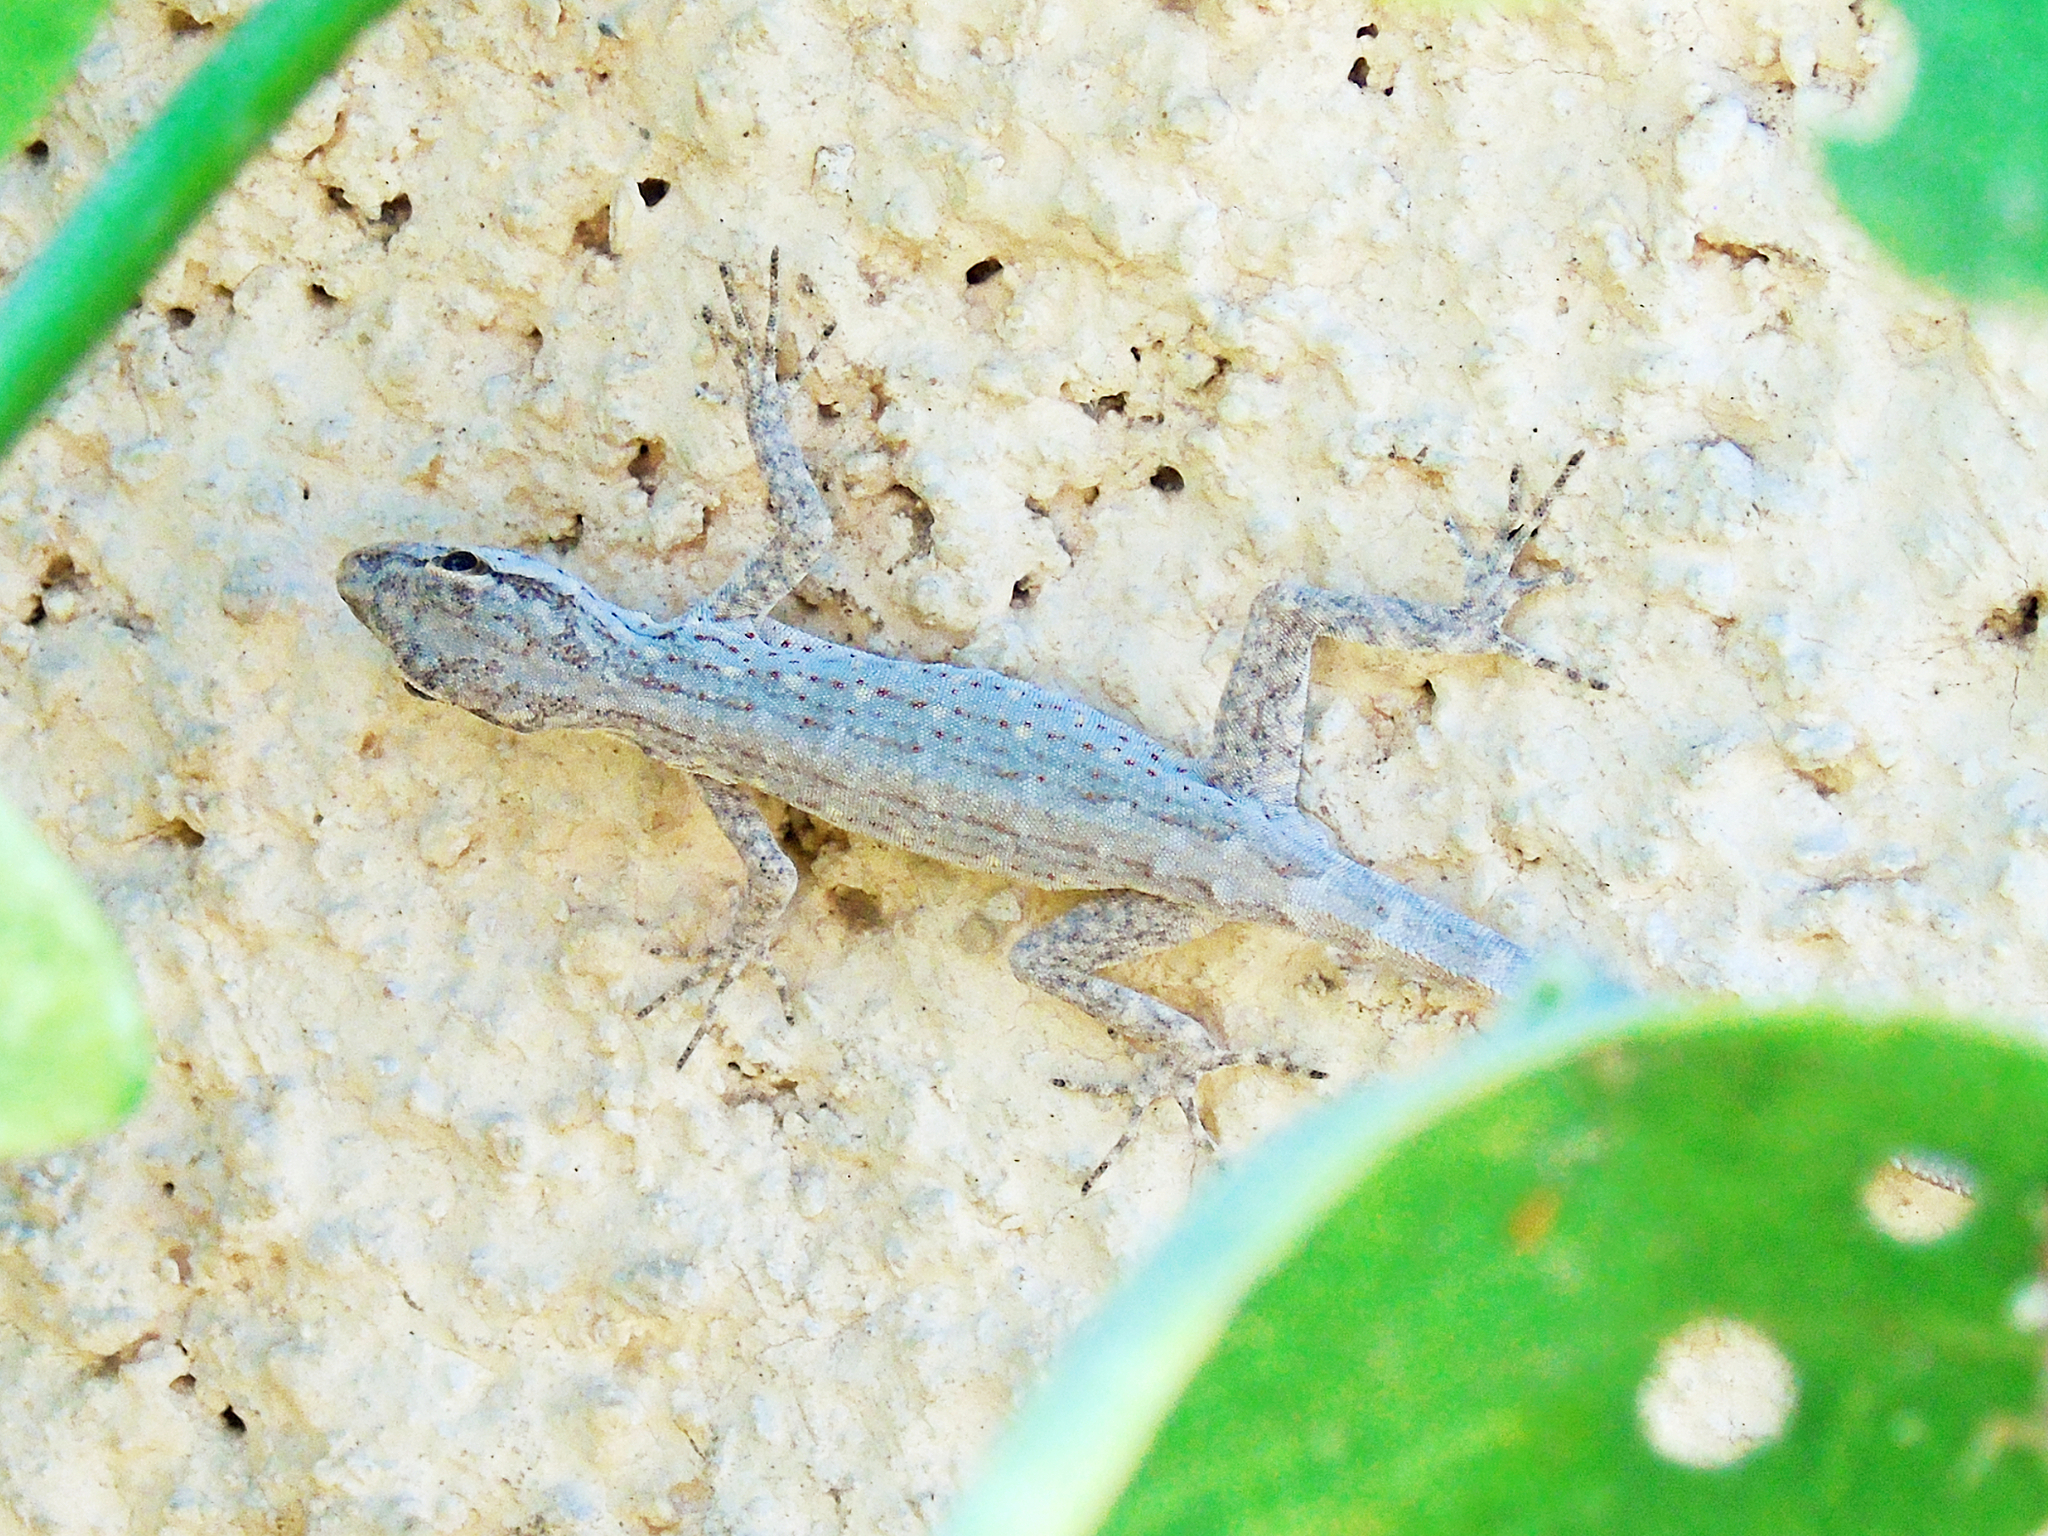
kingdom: Animalia
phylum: Chordata
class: Squamata
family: Sphaerodactylidae
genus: Pristurus
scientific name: Pristurus gallagheri
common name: Gallagher’s rock gecko
